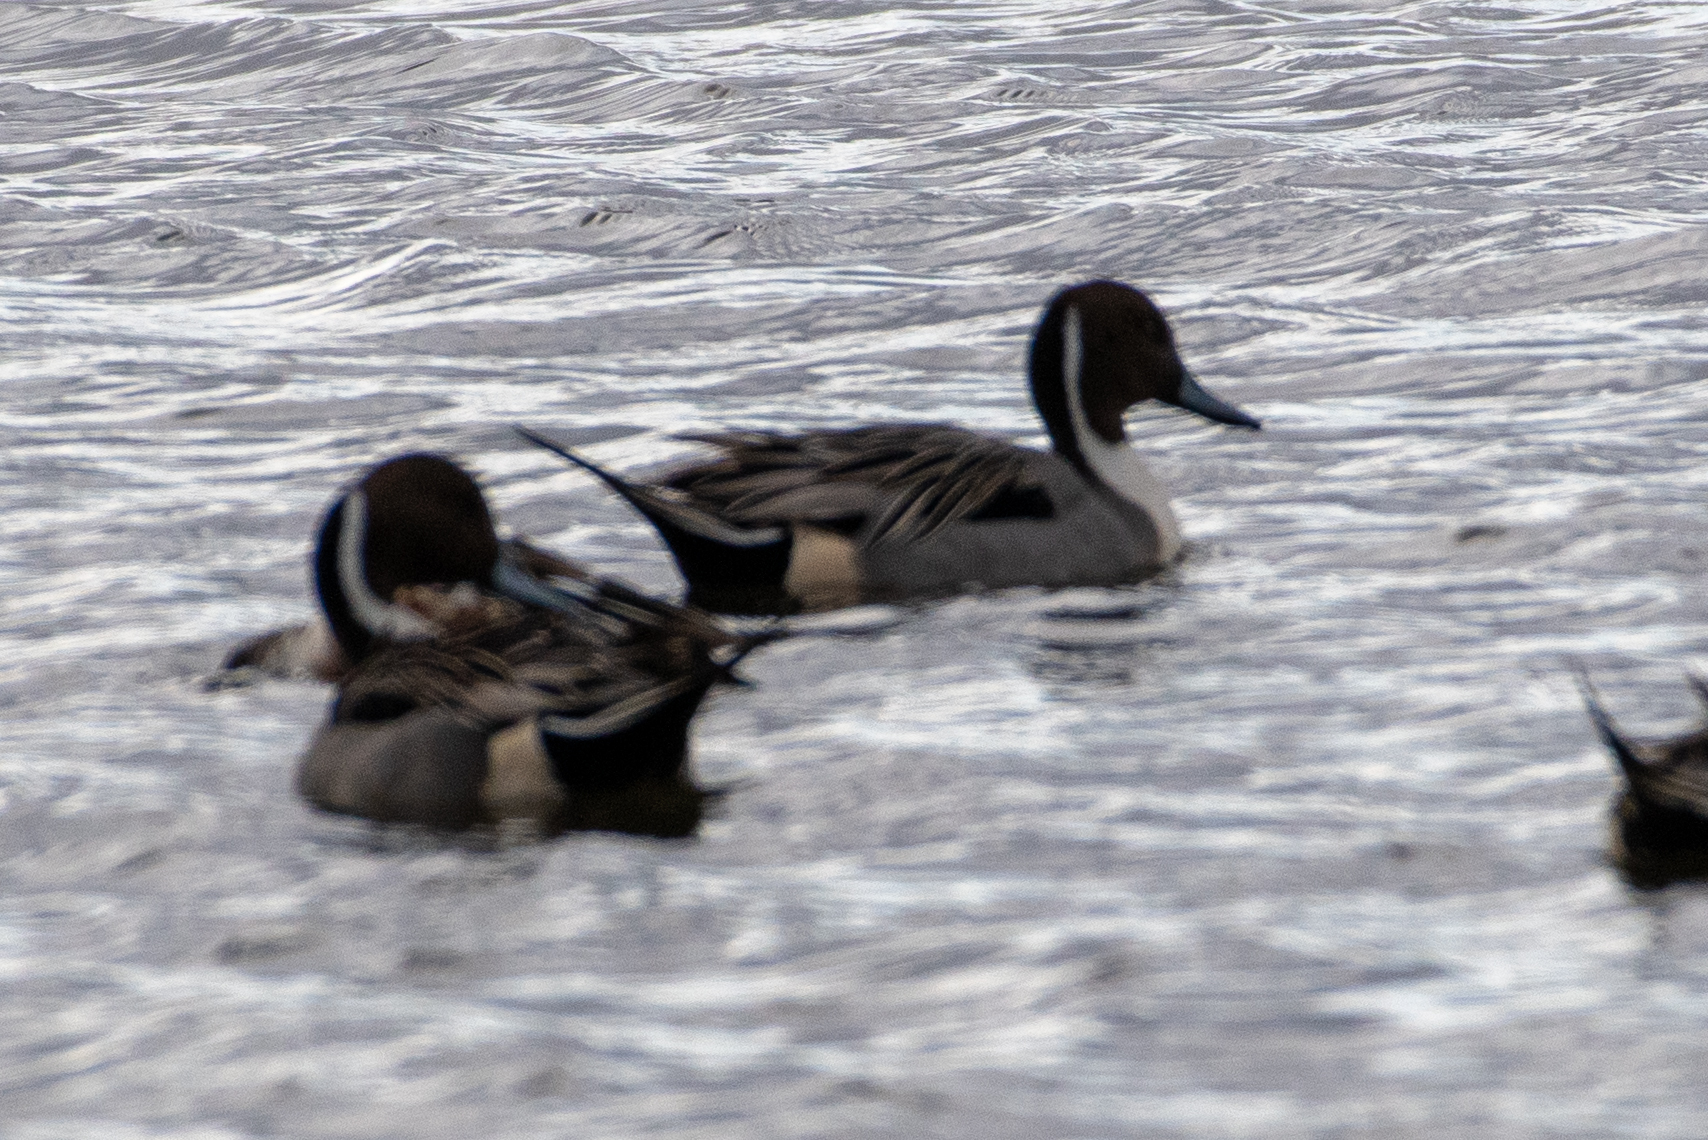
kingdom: Animalia
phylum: Chordata
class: Aves
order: Anseriformes
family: Anatidae
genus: Anas
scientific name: Anas acuta
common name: Northern pintail
